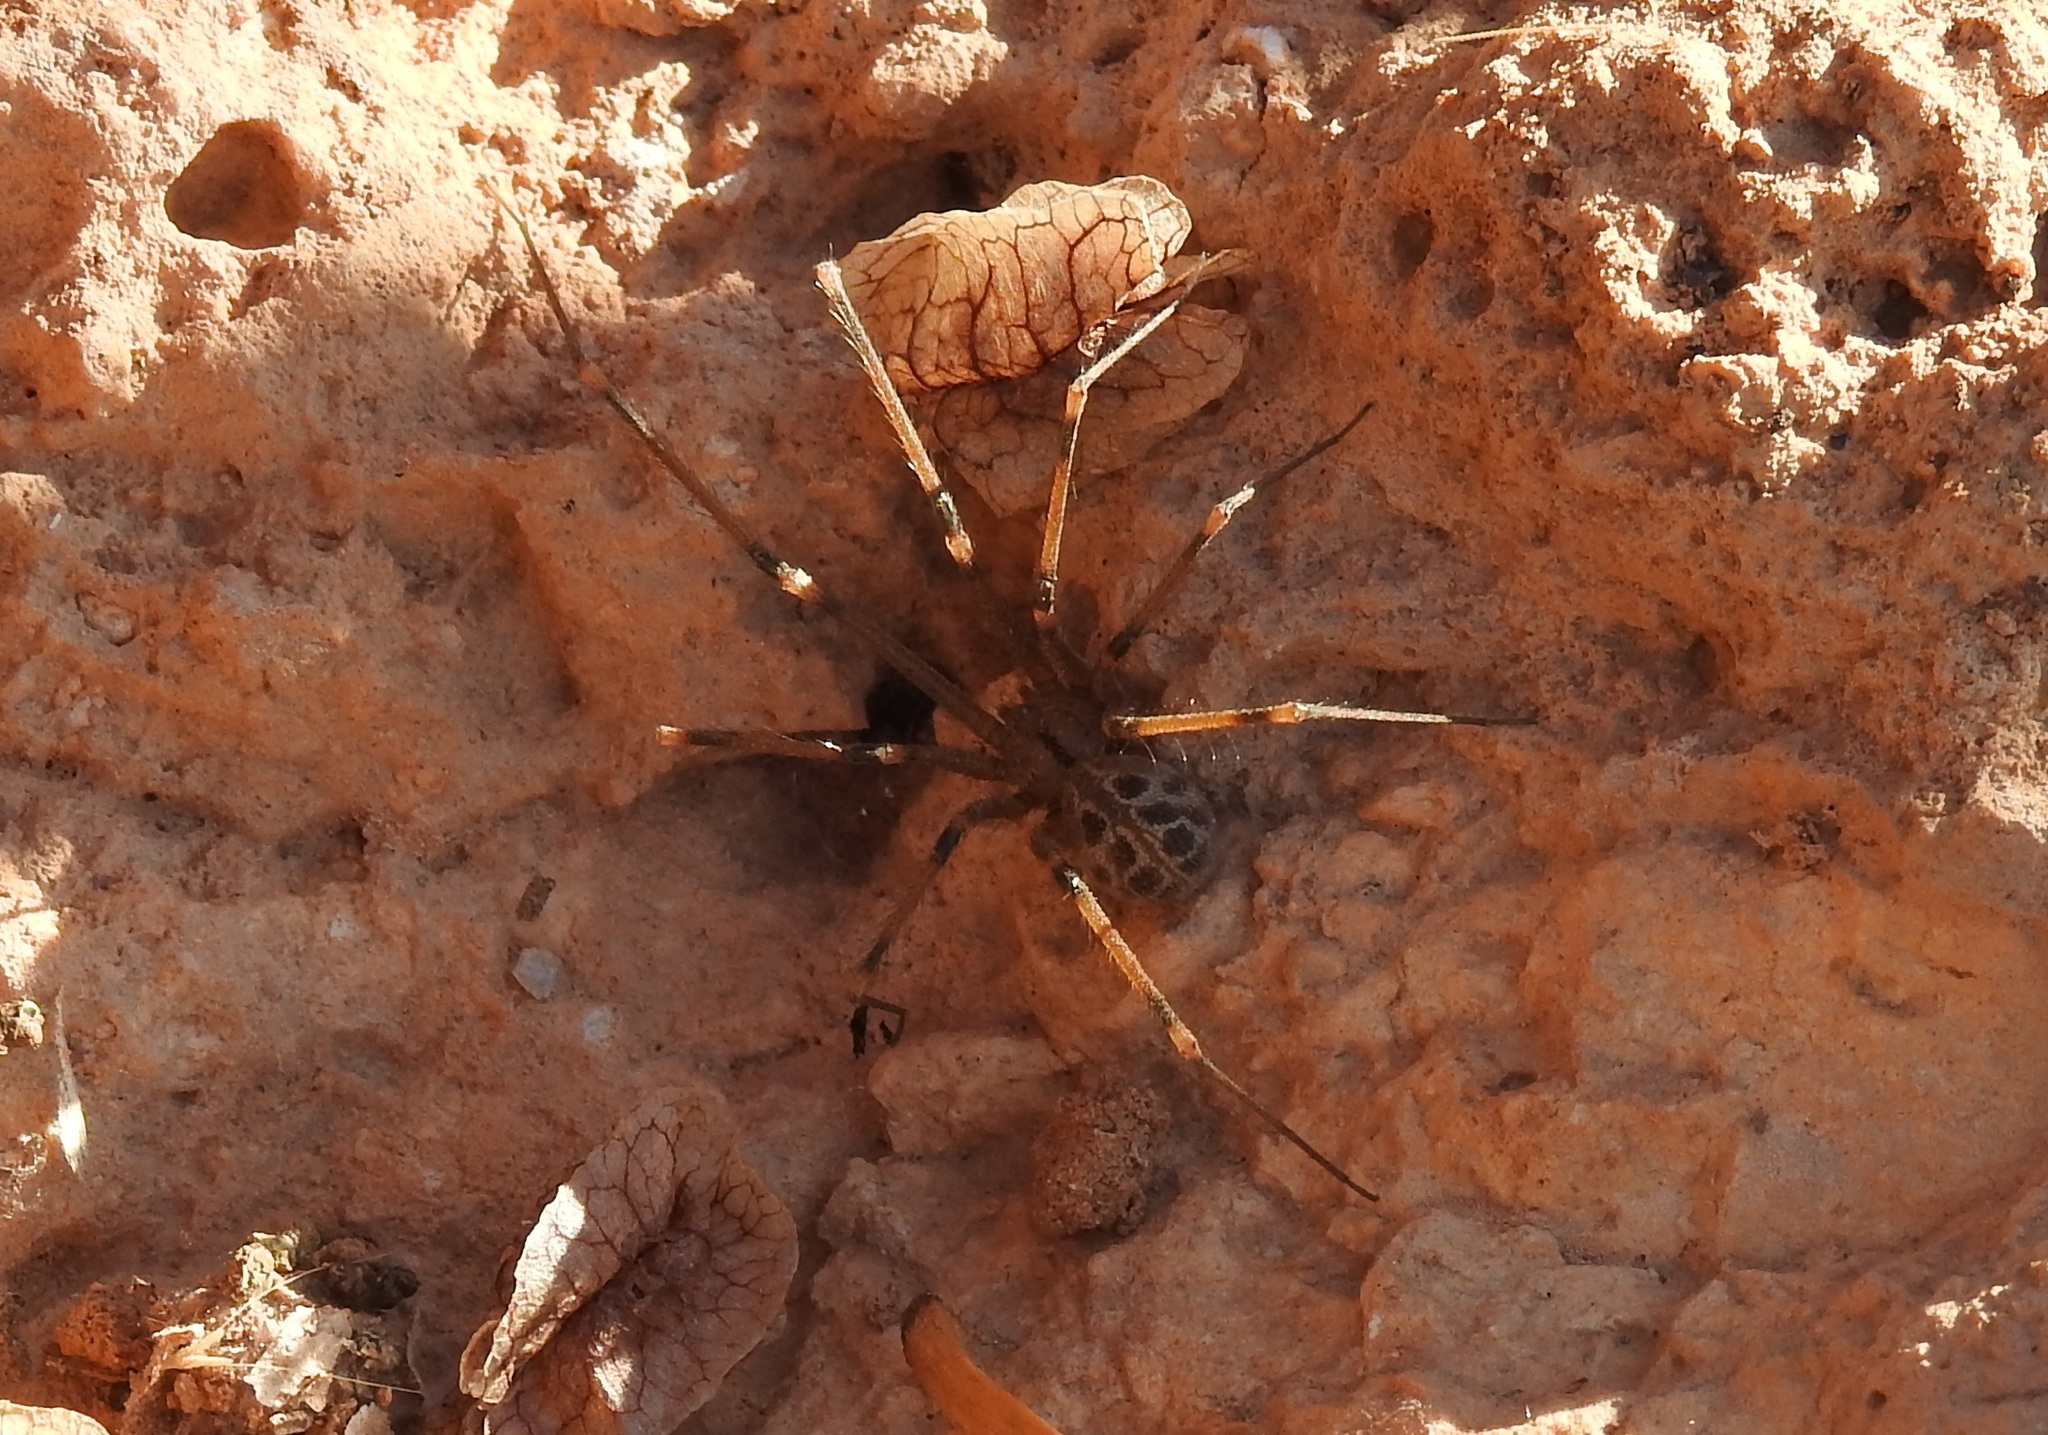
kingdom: Animalia
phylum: Arthropoda
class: Arachnida
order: Araneae
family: Pholcidae
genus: Artema
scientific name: Artema atlanta
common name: Cellar spider
